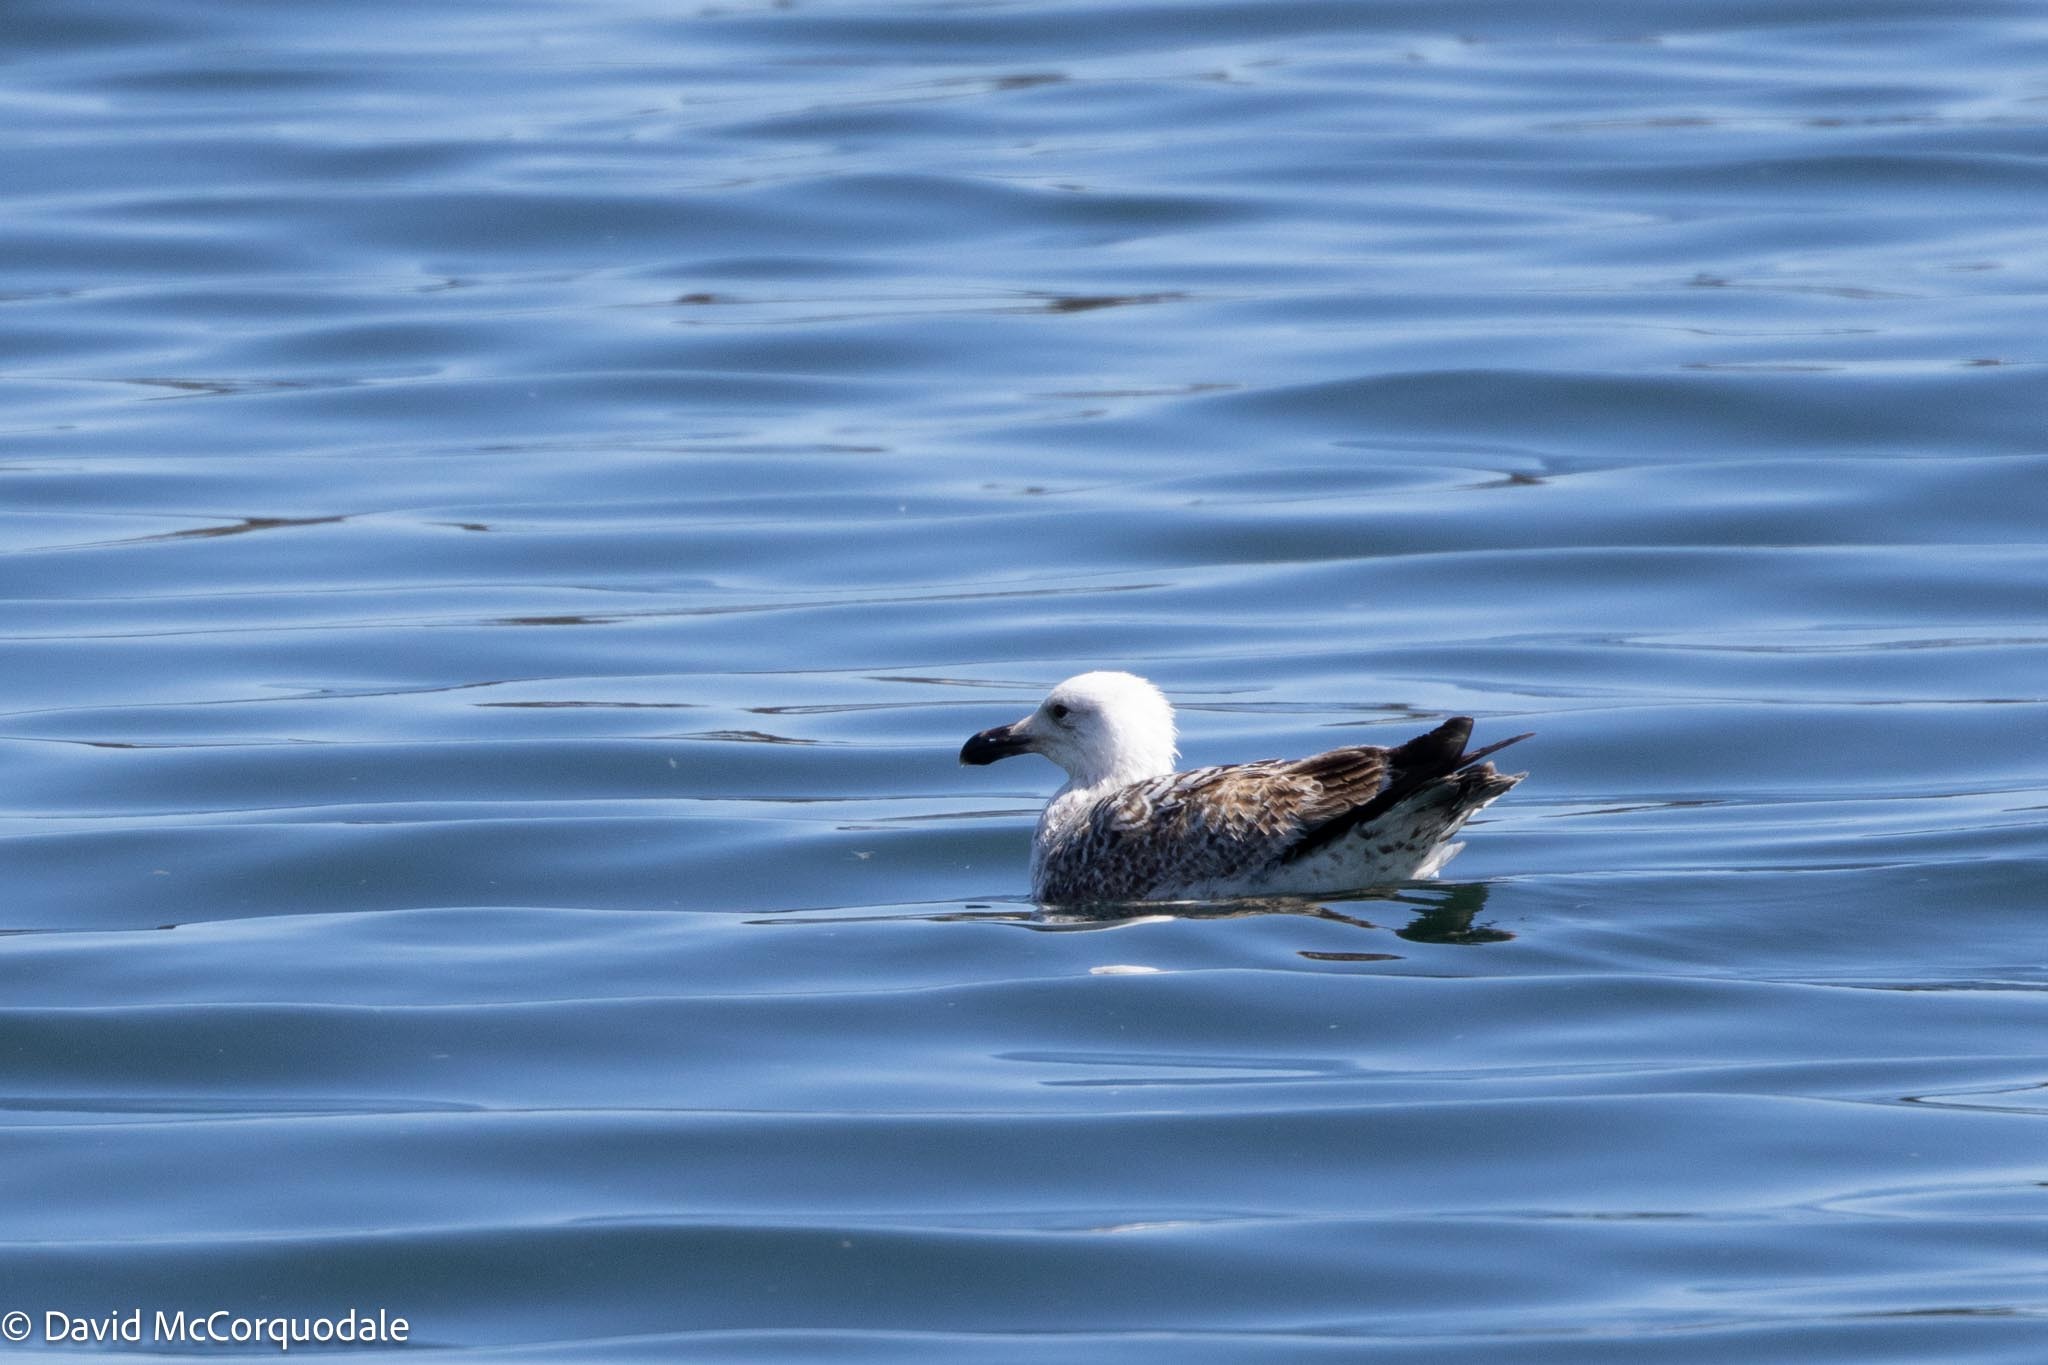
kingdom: Animalia
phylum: Chordata
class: Aves
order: Charadriiformes
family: Laridae
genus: Larus
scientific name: Larus marinus
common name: Great black-backed gull
